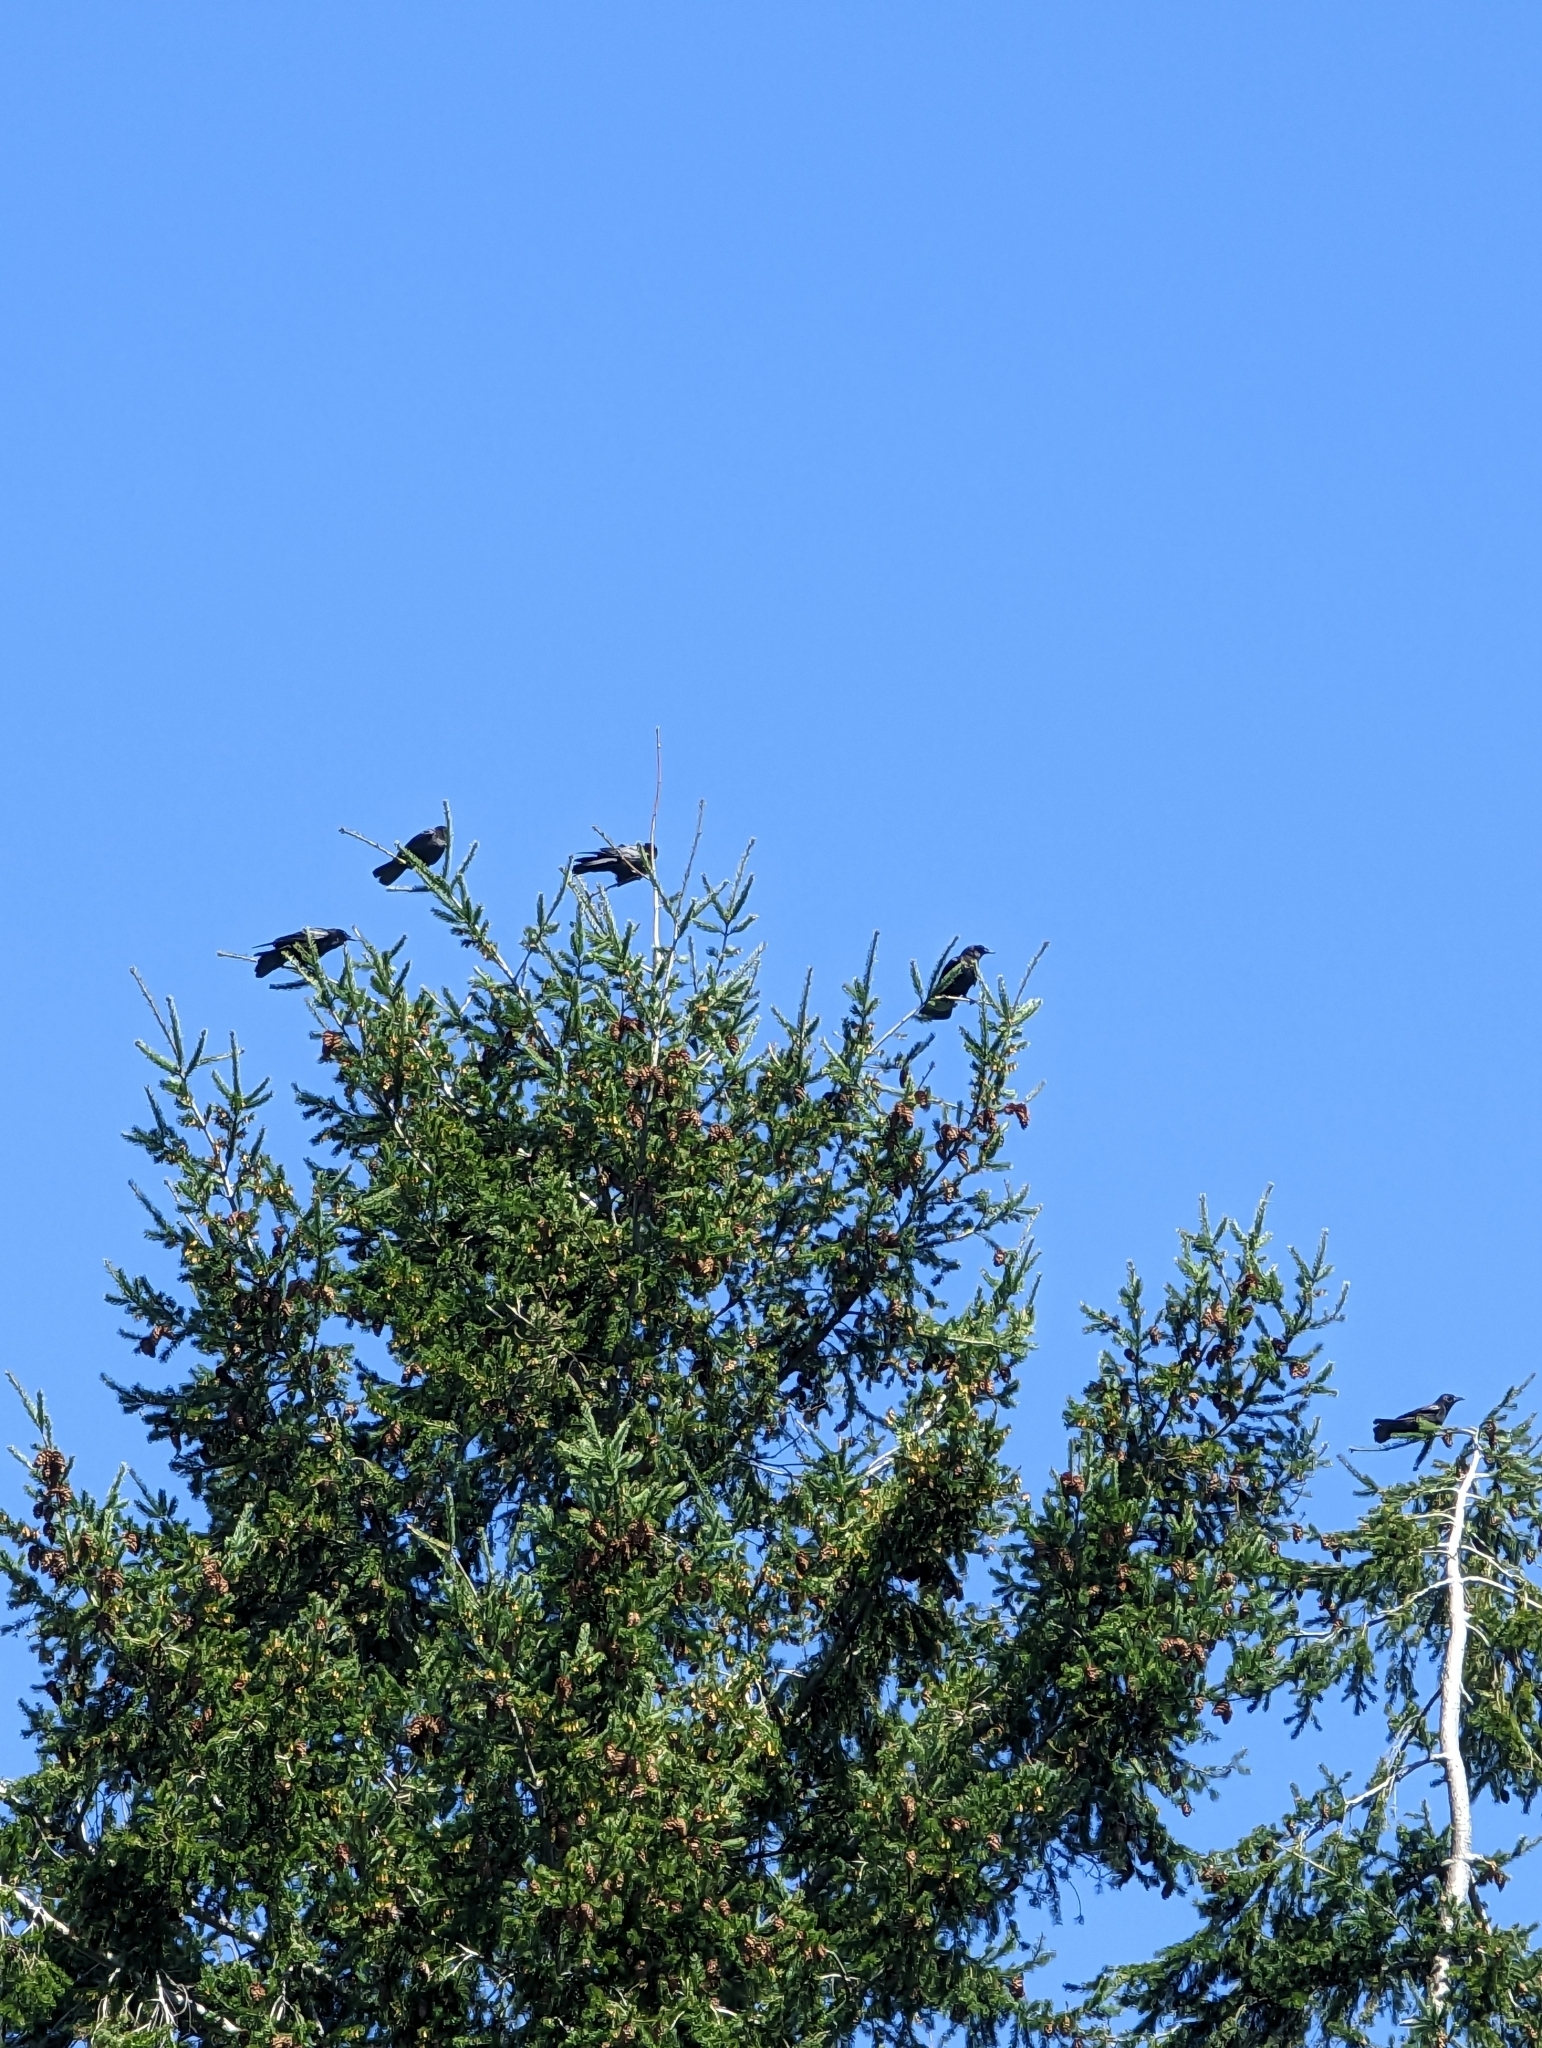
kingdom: Animalia
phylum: Chordata
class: Aves
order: Passeriformes
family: Corvidae
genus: Corvus
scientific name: Corvus brachyrhynchos
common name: American crow
